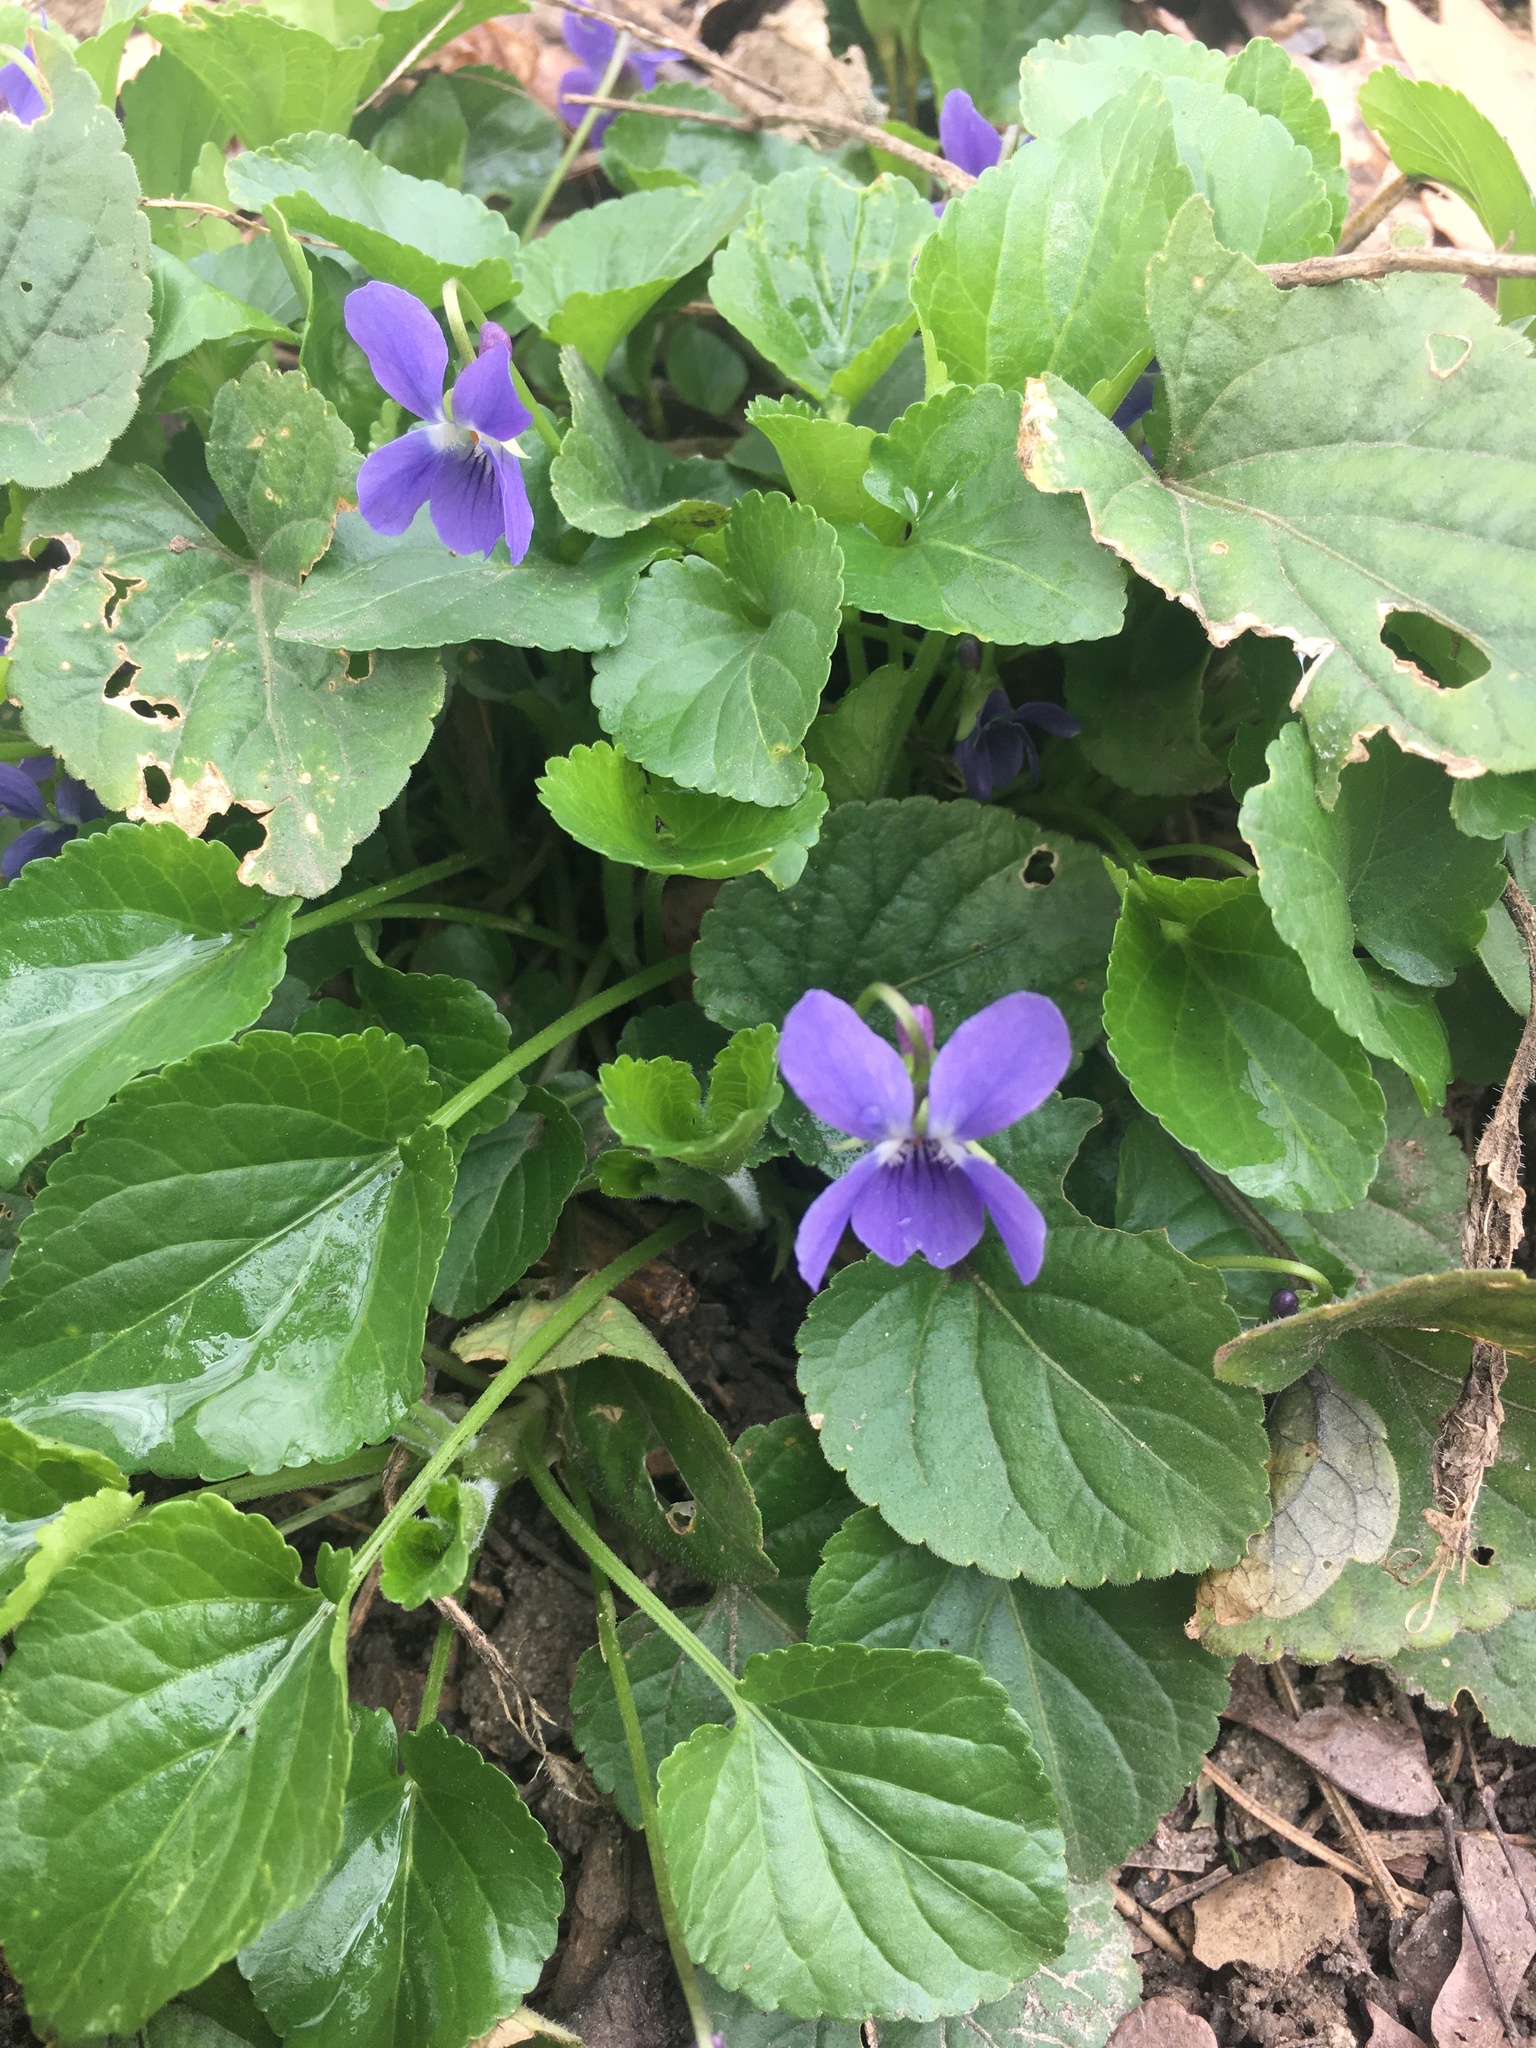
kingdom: Plantae
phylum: Tracheophyta
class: Magnoliopsida
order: Malpighiales
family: Violaceae
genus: Viola
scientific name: Viola odorata
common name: Sweet violet
